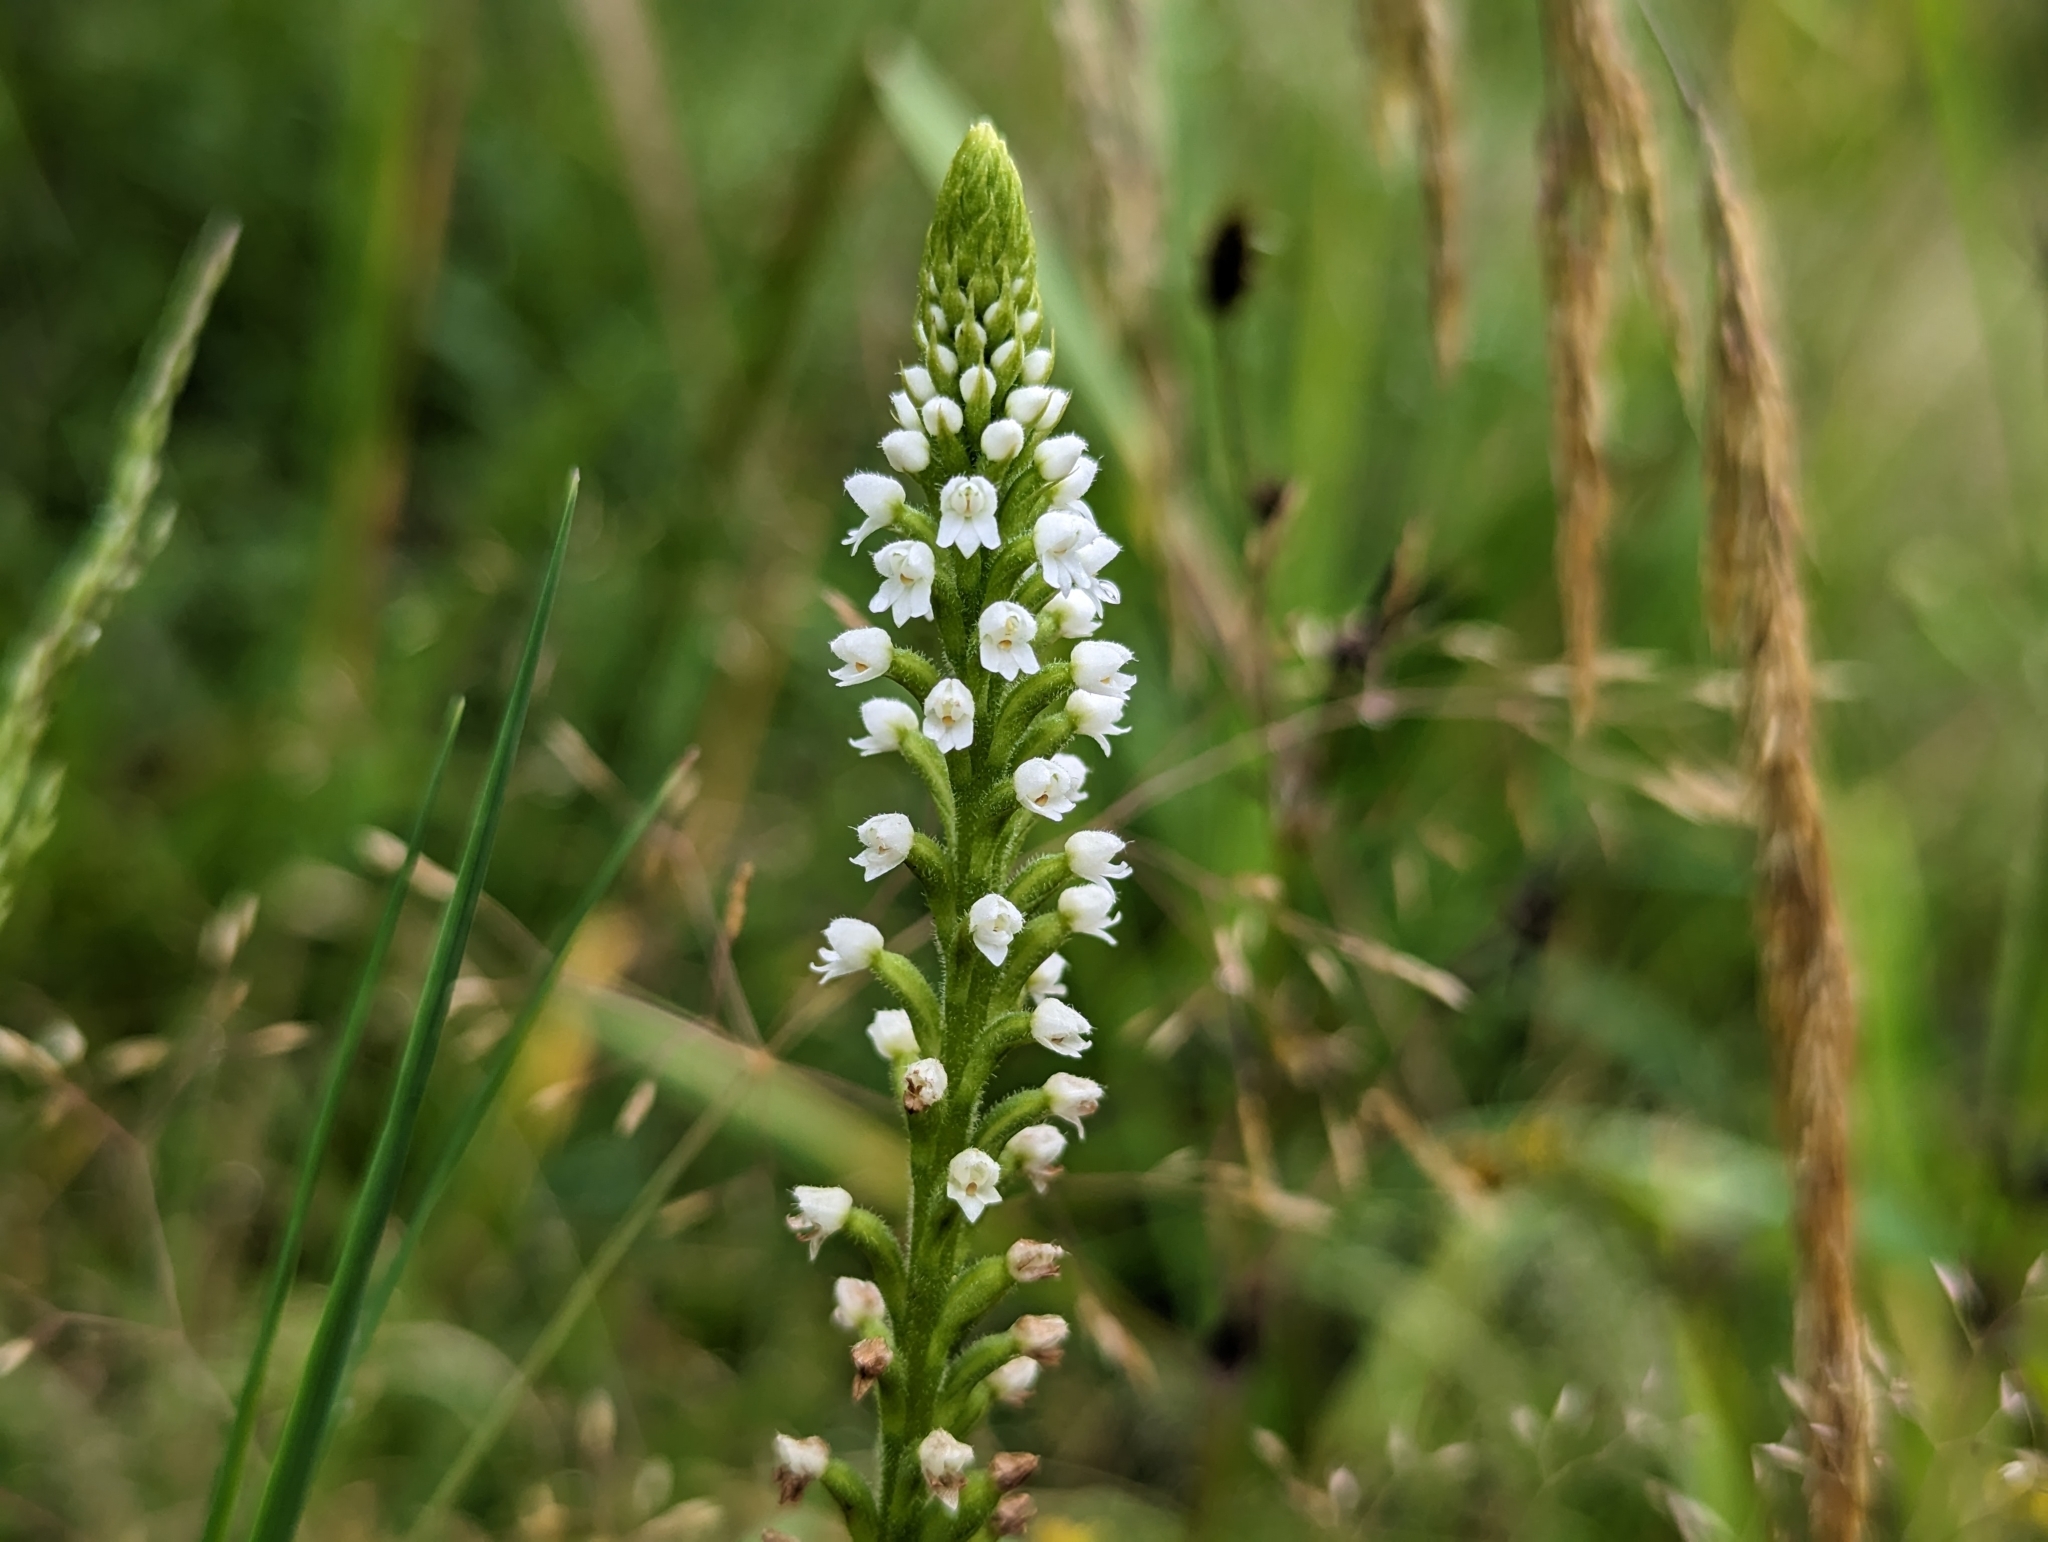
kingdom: Plantae
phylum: Tracheophyta
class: Liliopsida
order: Asparagales
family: Orchidaceae
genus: Ponthieva
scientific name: Ponthieva fertilis
